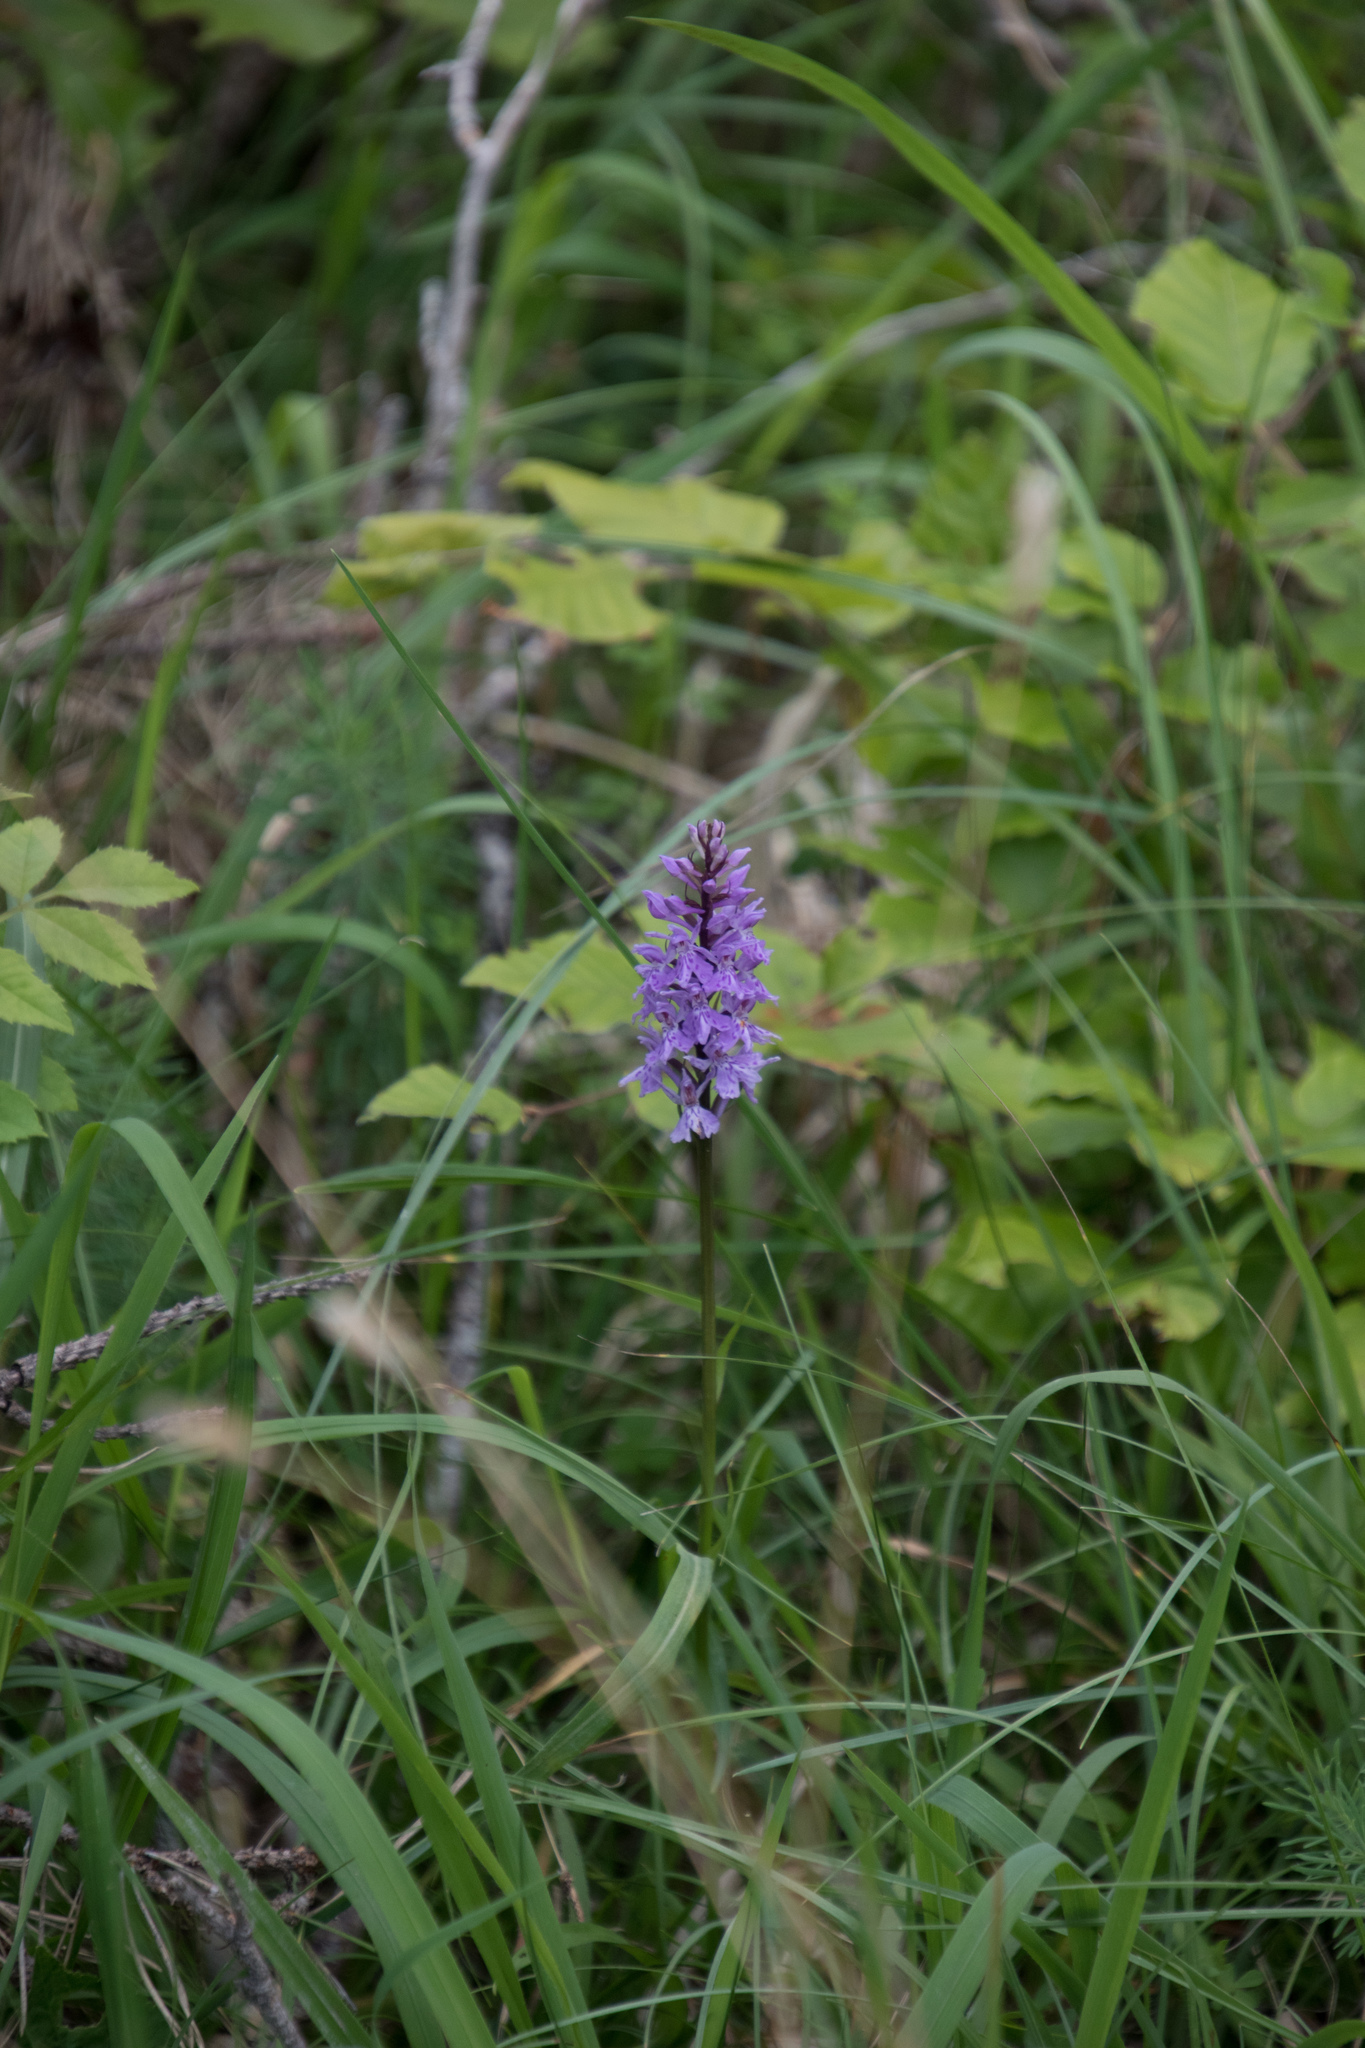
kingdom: Plantae
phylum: Tracheophyta
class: Liliopsida
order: Asparagales
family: Orchidaceae
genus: Dactylorhiza
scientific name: Dactylorhiza maculata
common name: Heath spotted-orchid
